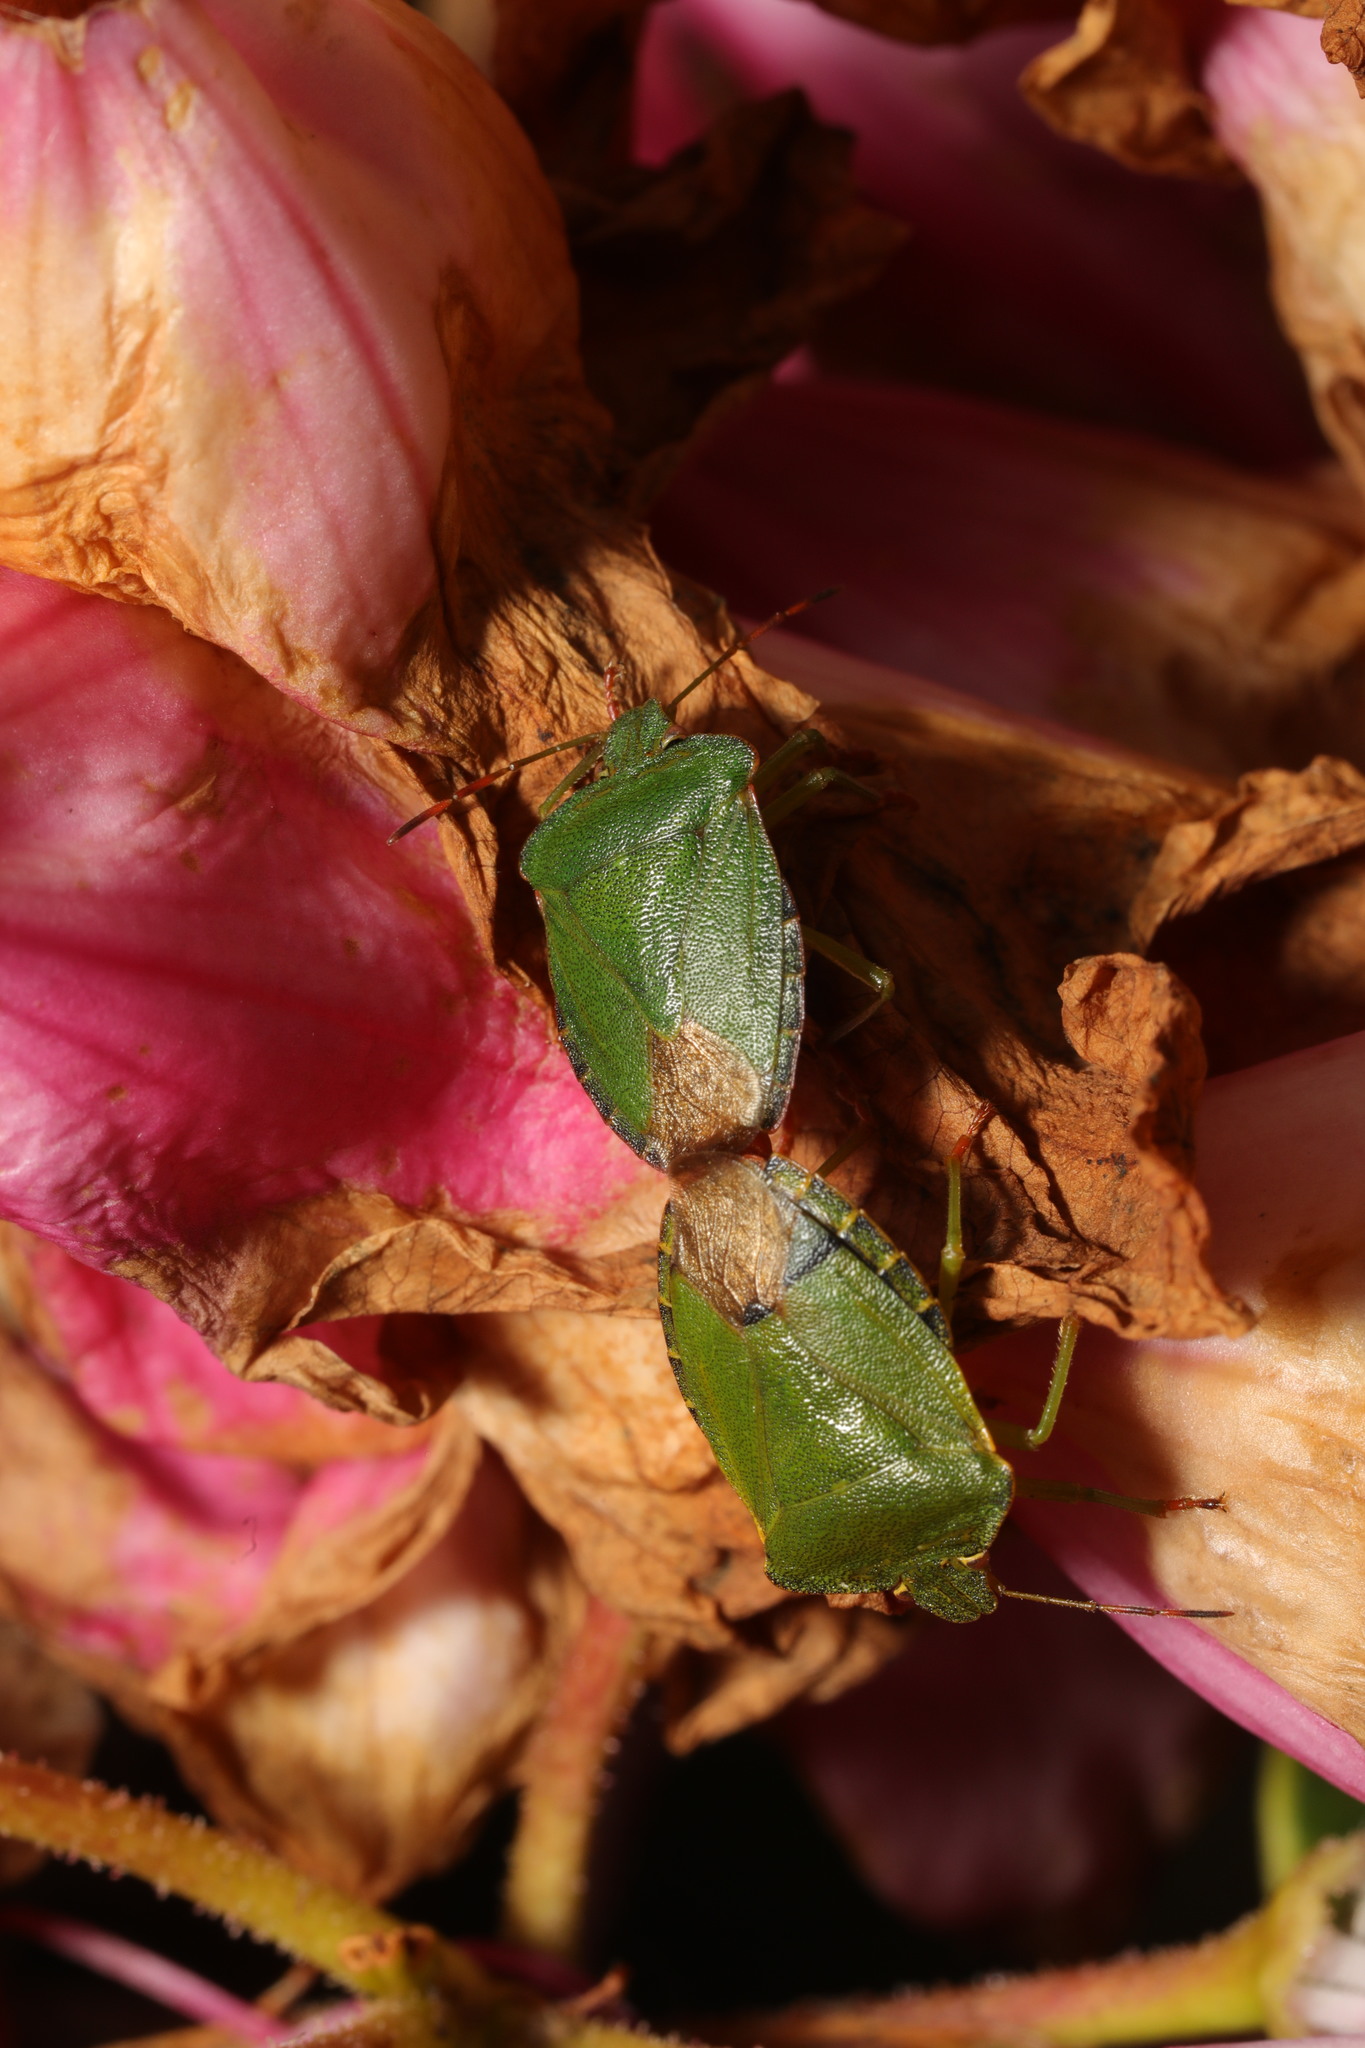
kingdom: Animalia
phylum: Arthropoda
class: Insecta
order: Hemiptera
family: Pentatomidae
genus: Palomena
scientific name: Palomena prasina
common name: Green shieldbug
